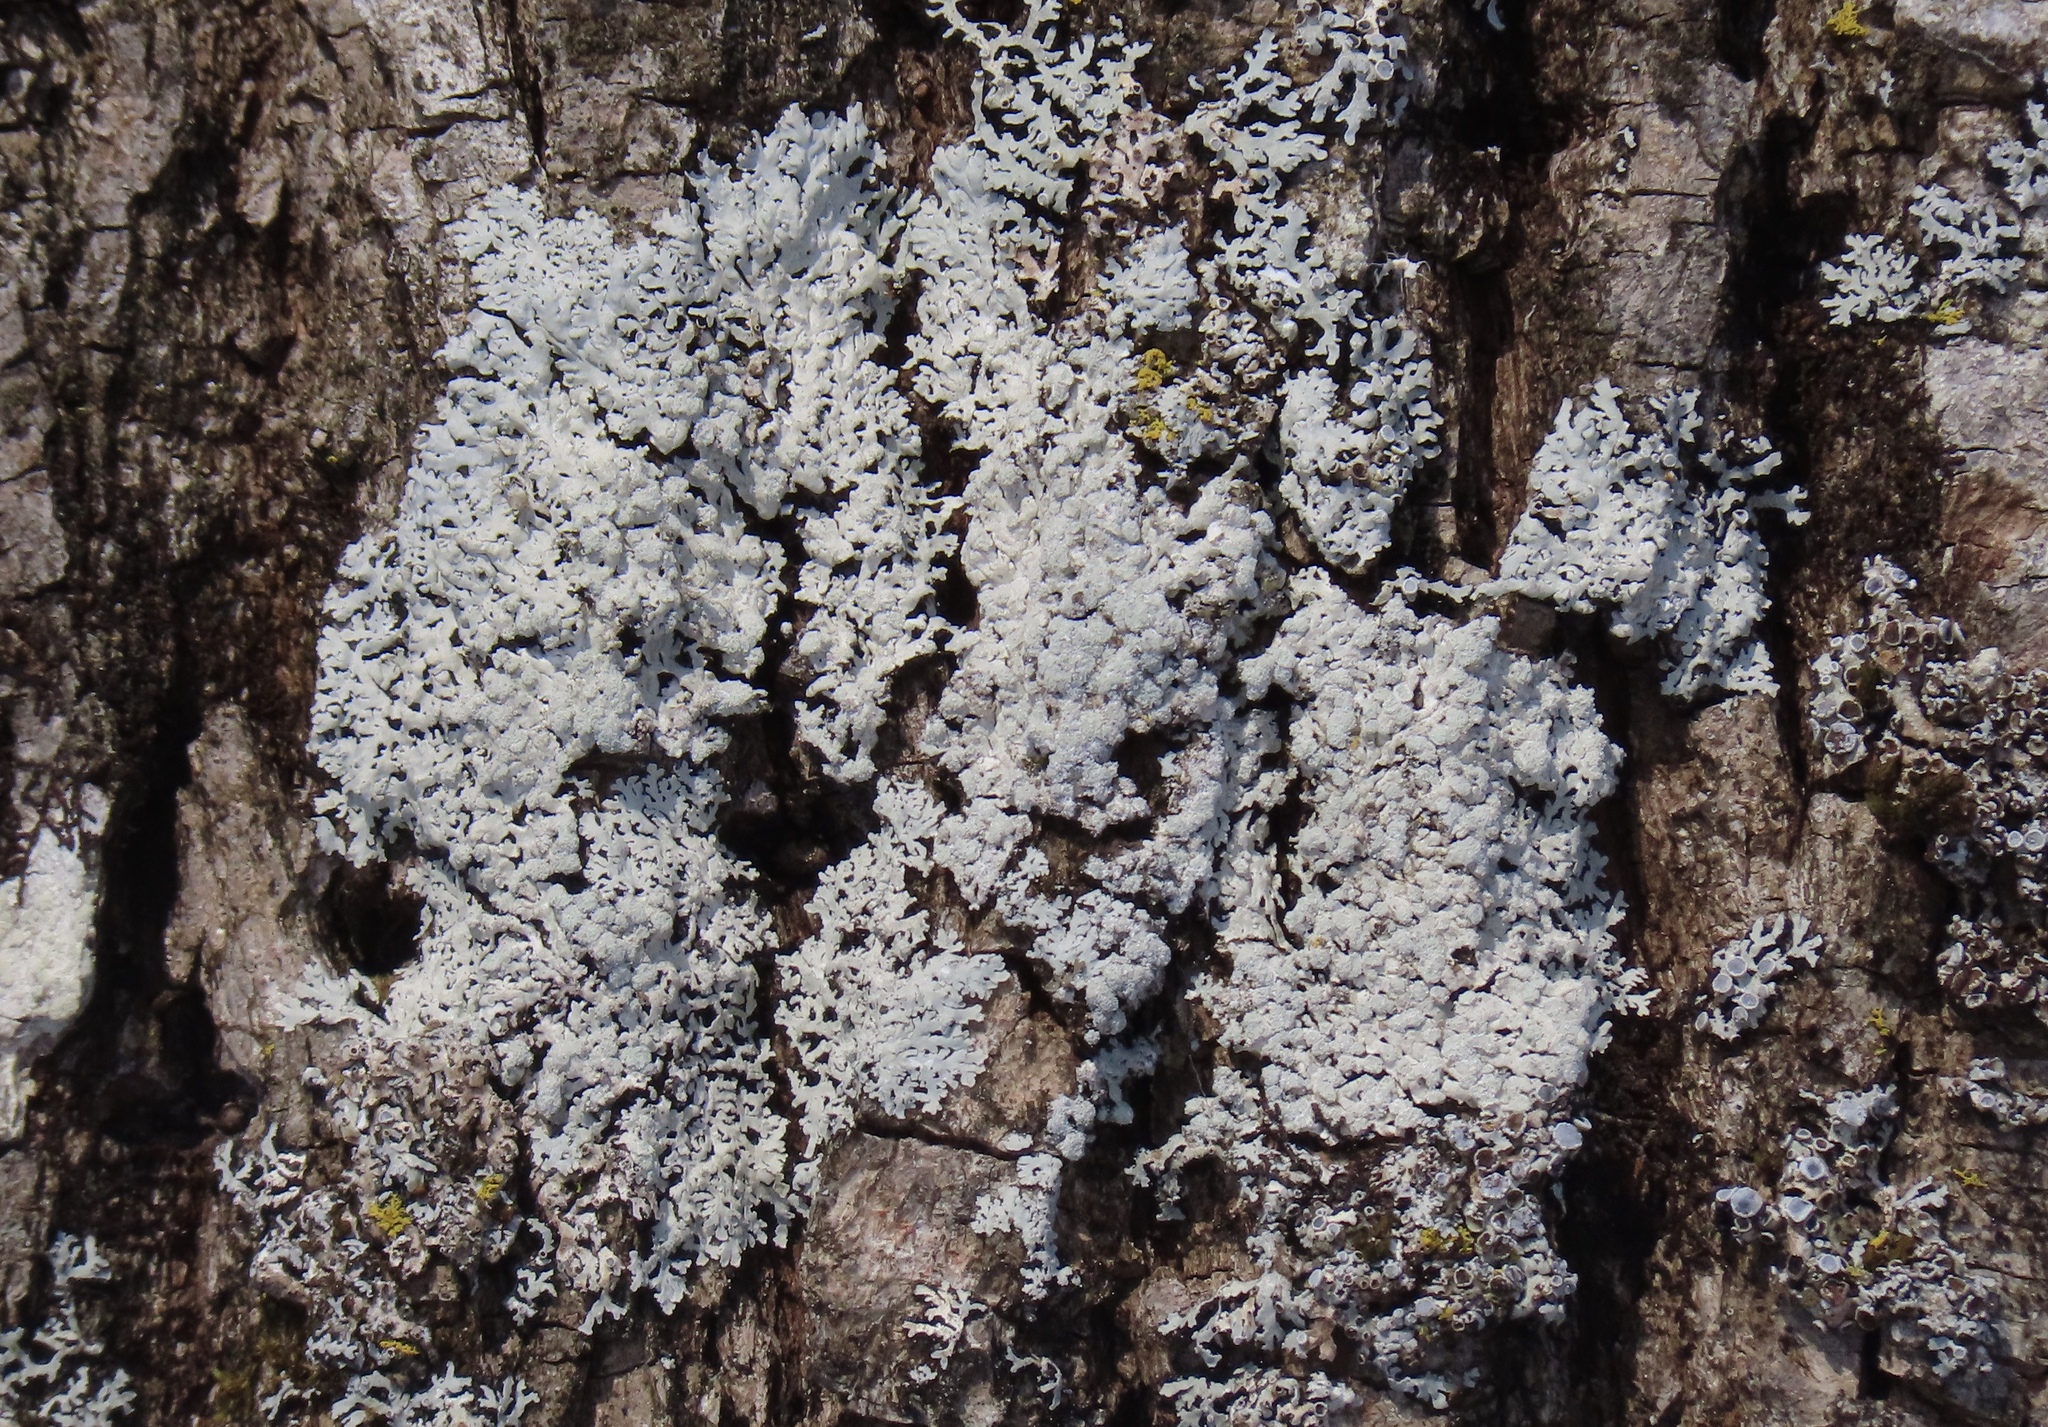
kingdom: Fungi
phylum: Ascomycota
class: Lecanoromycetes
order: Caliciales
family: Physciaceae
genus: Physcia
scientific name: Physcia americana
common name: American rosette lichen
